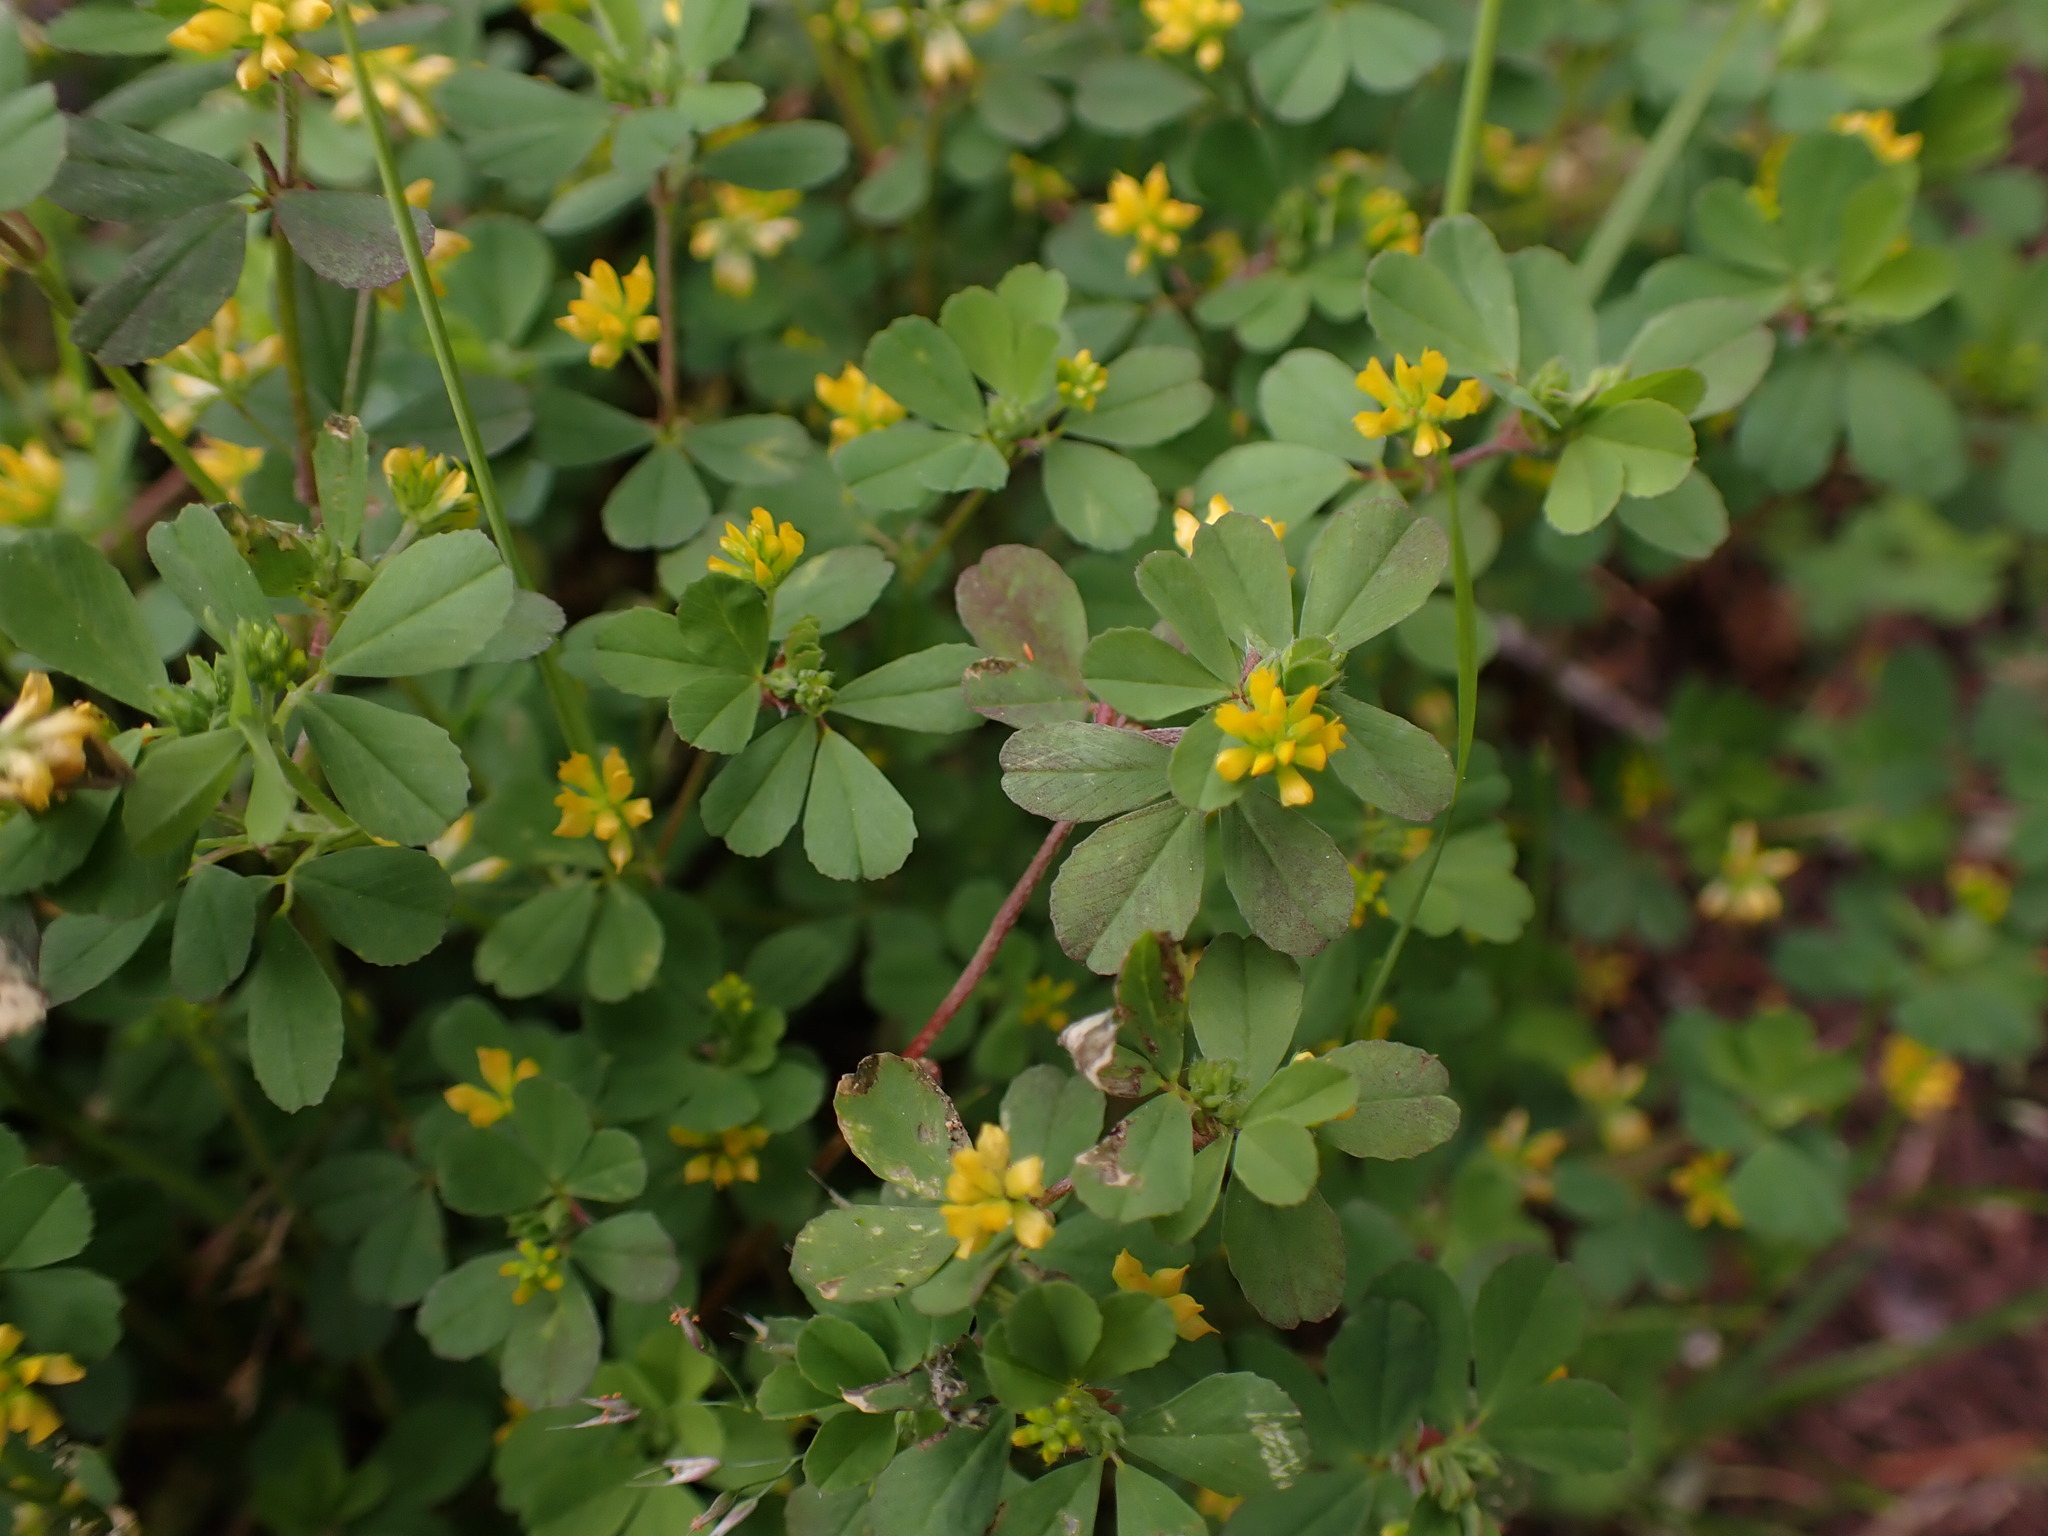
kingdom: Plantae
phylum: Tracheophyta
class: Magnoliopsida
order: Fabales
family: Fabaceae
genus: Trifolium
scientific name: Trifolium dubium
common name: Suckling clover
